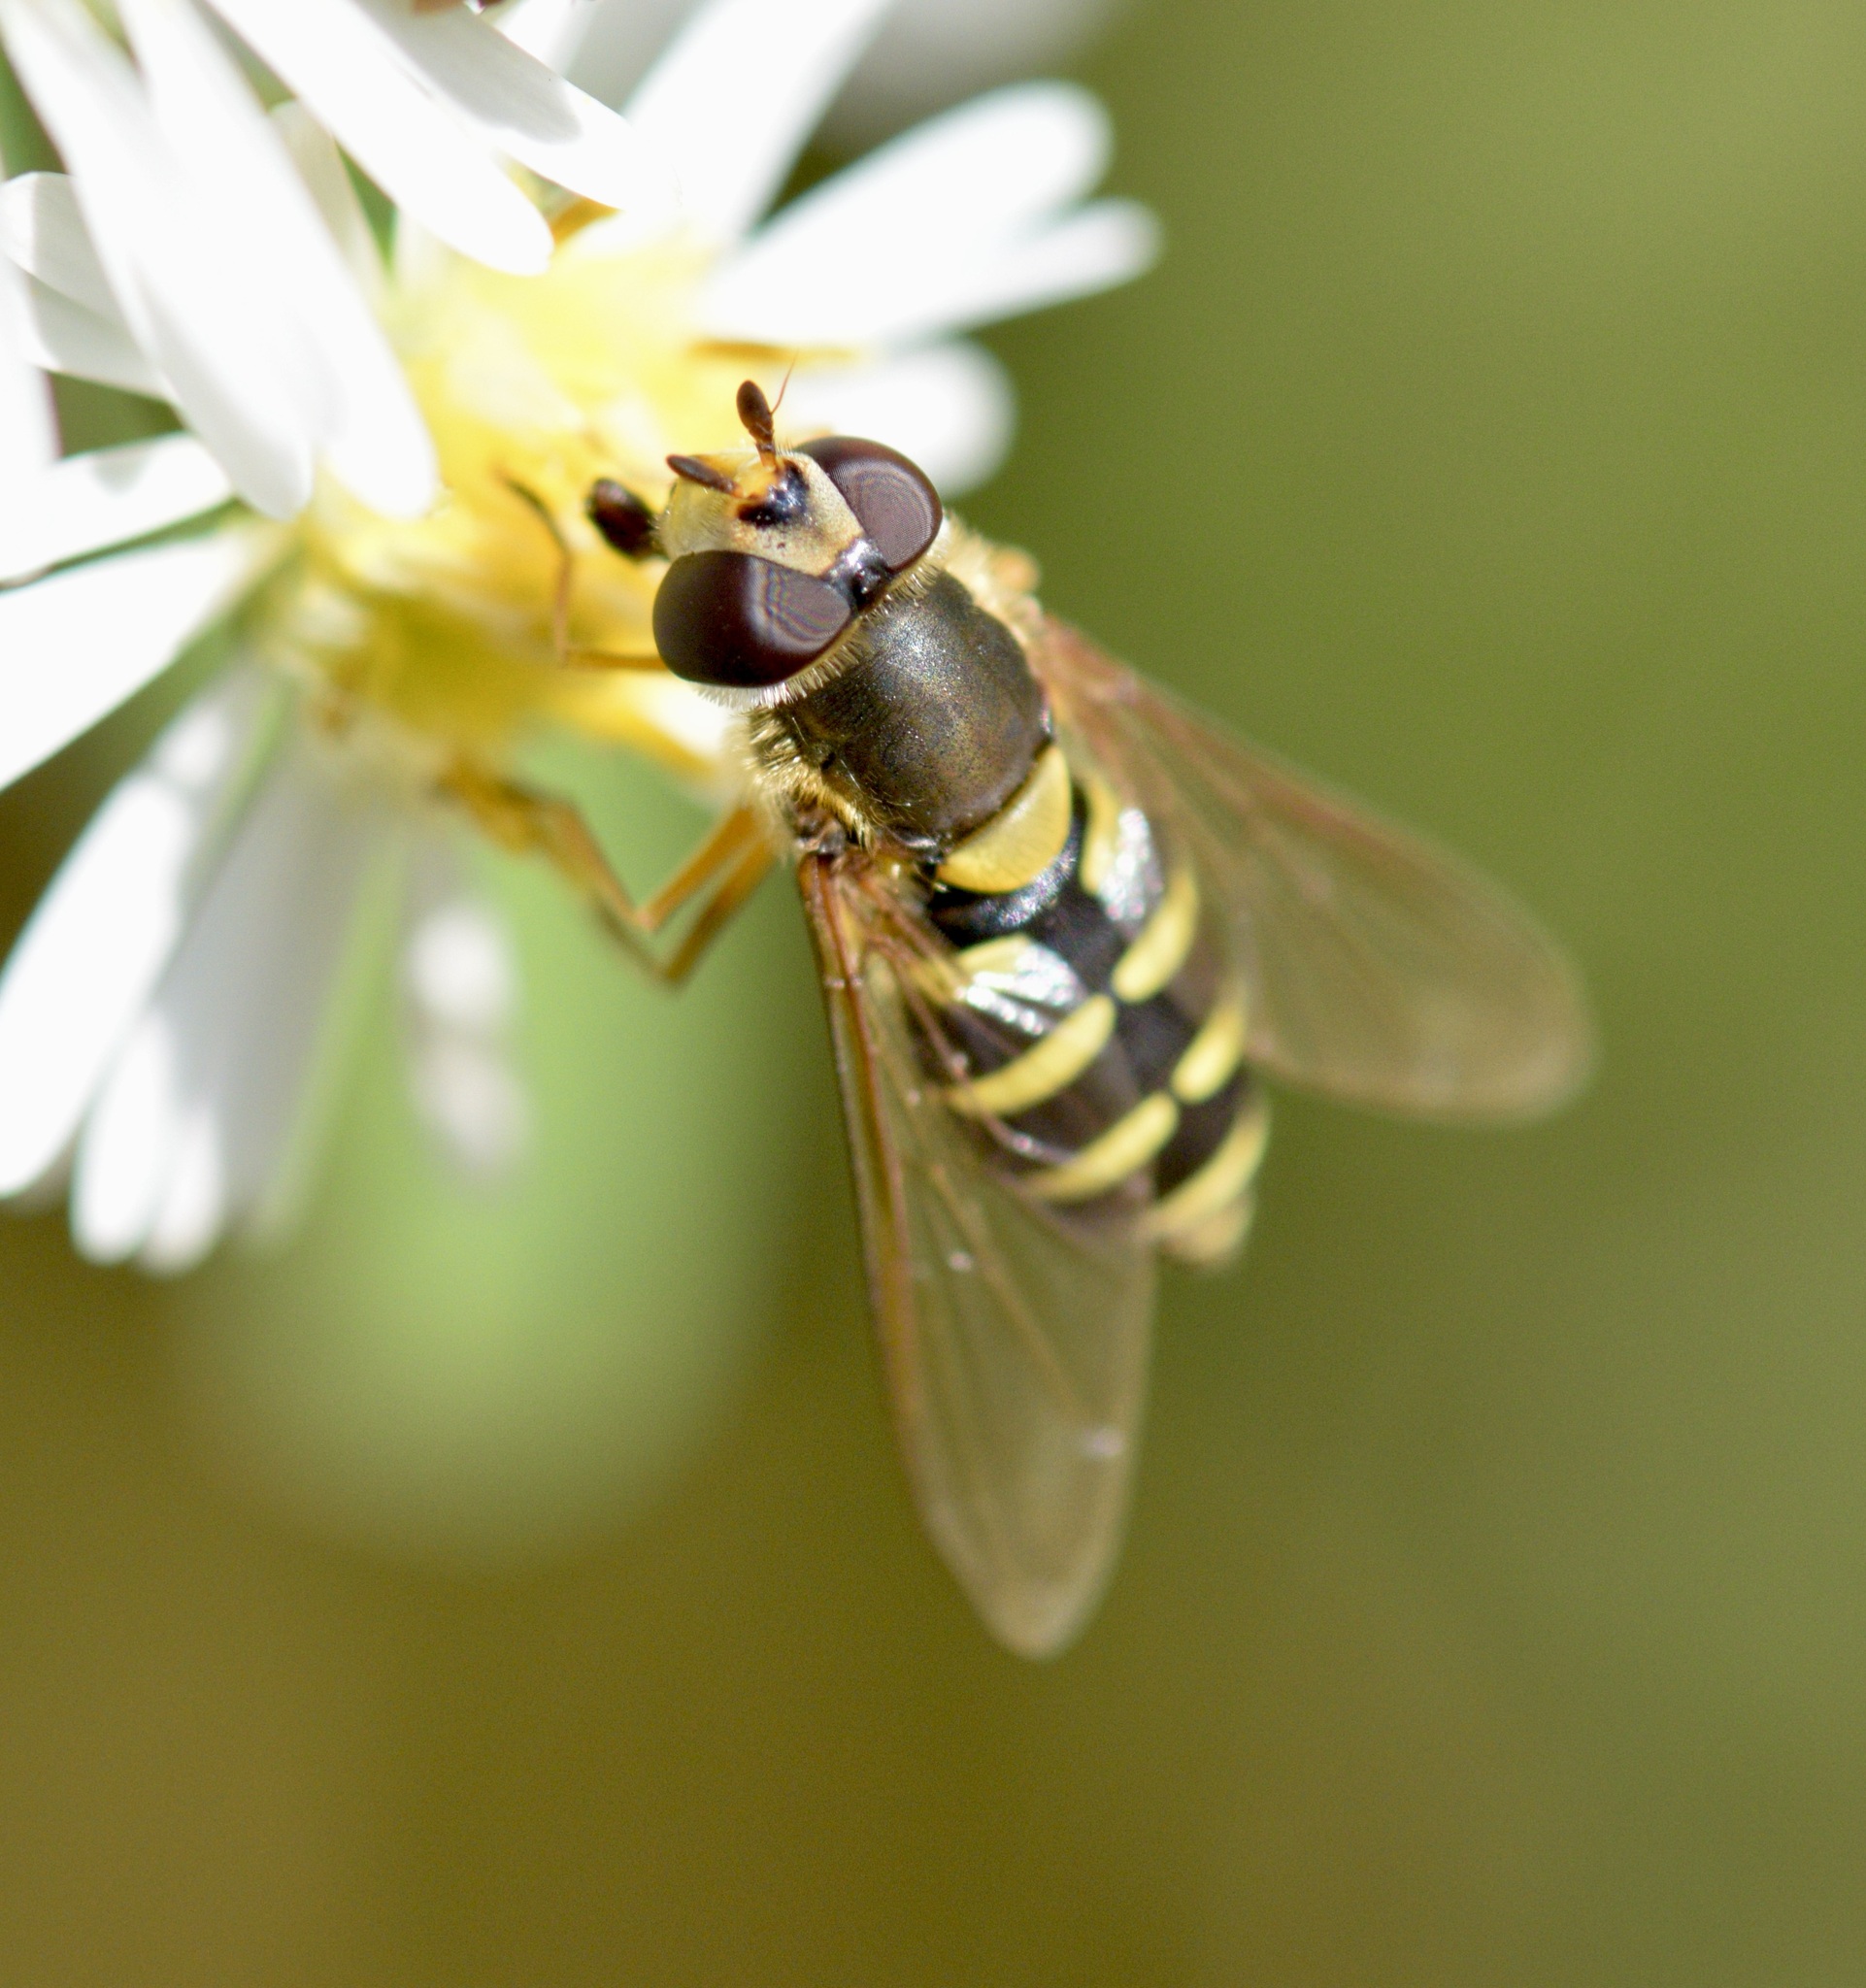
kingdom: Animalia
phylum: Arthropoda
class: Insecta
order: Diptera
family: Syrphidae
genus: Syrphus
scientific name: Syrphus ribesii
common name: Common flower fly
